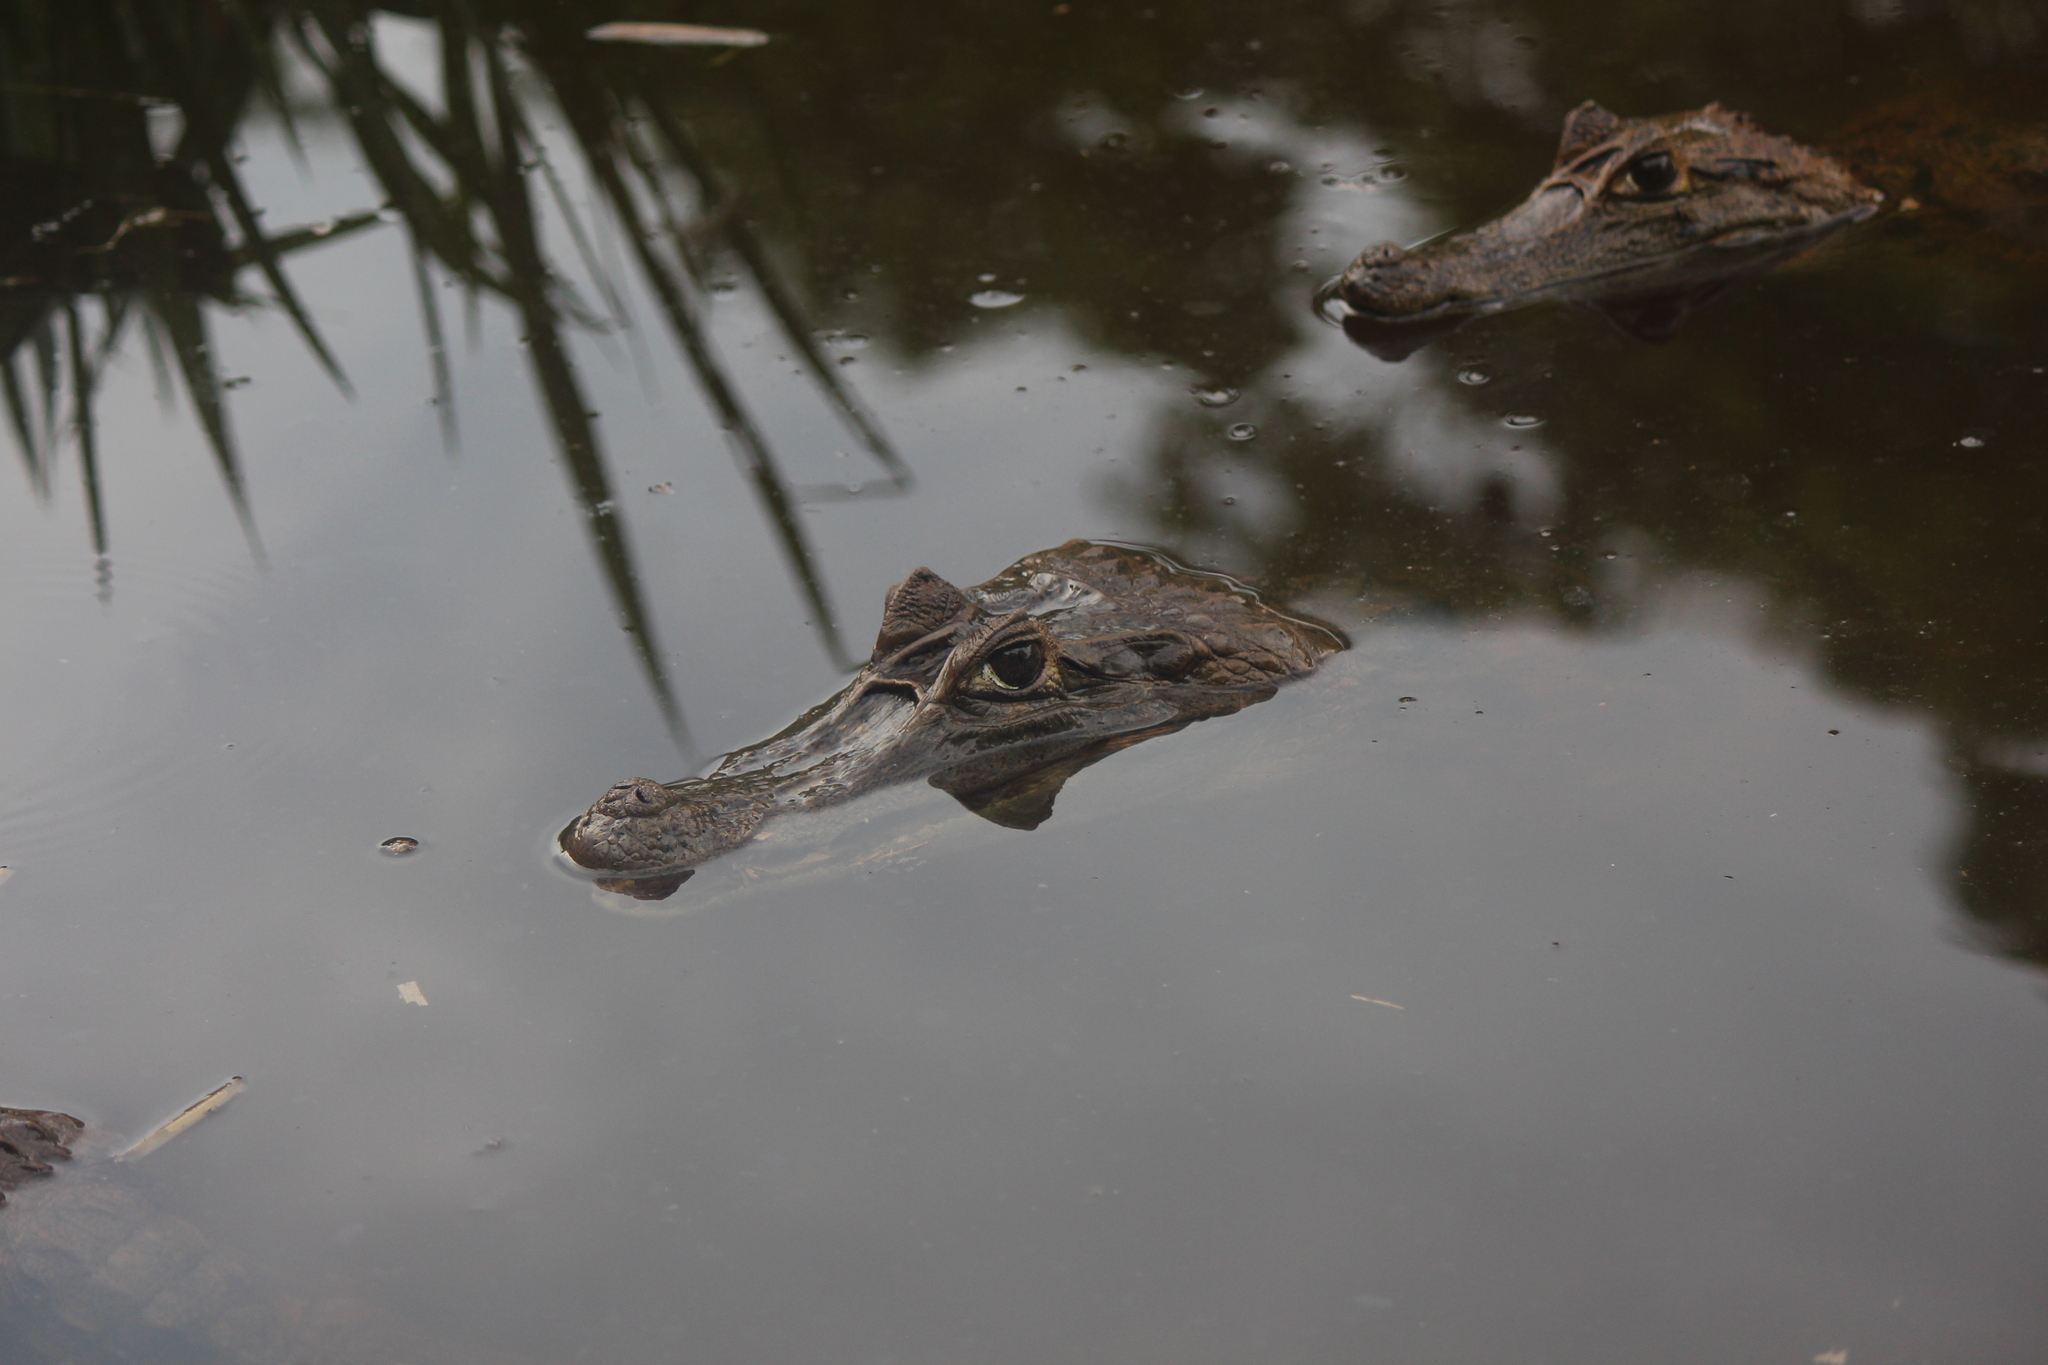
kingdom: Animalia
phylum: Chordata
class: Crocodylia
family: Alligatoridae
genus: Caiman
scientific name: Caiman crocodilus
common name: Common caiman
